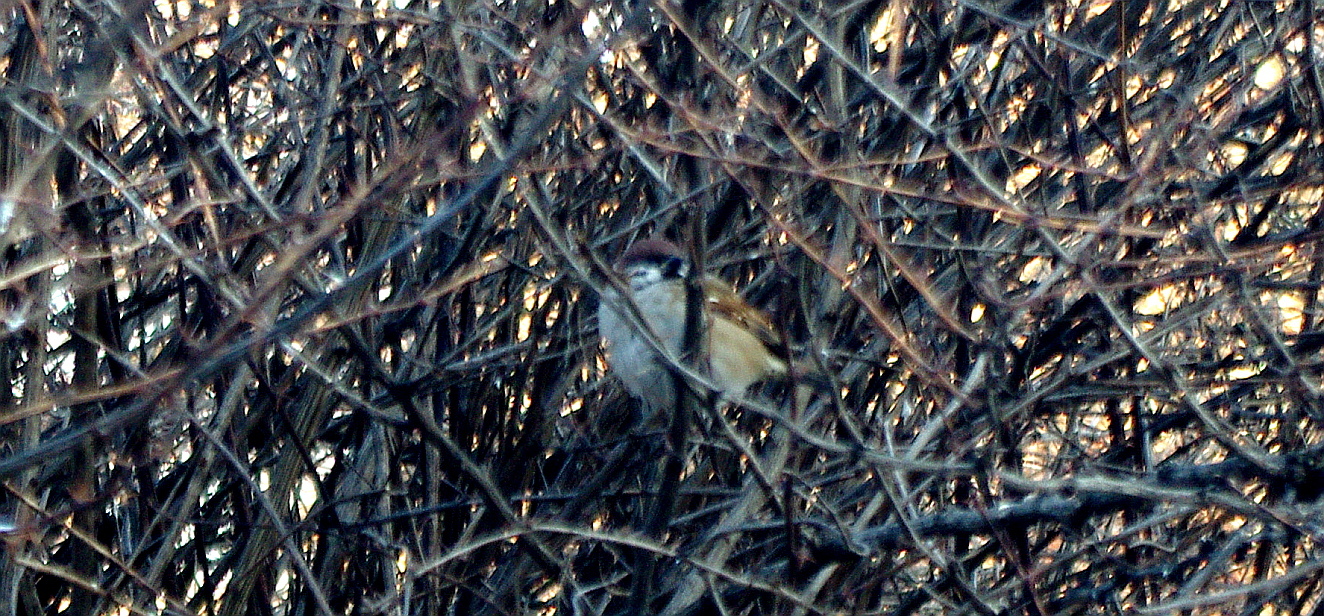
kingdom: Animalia
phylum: Chordata
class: Aves
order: Passeriformes
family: Passeridae
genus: Passer
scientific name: Passer montanus
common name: Eurasian tree sparrow
